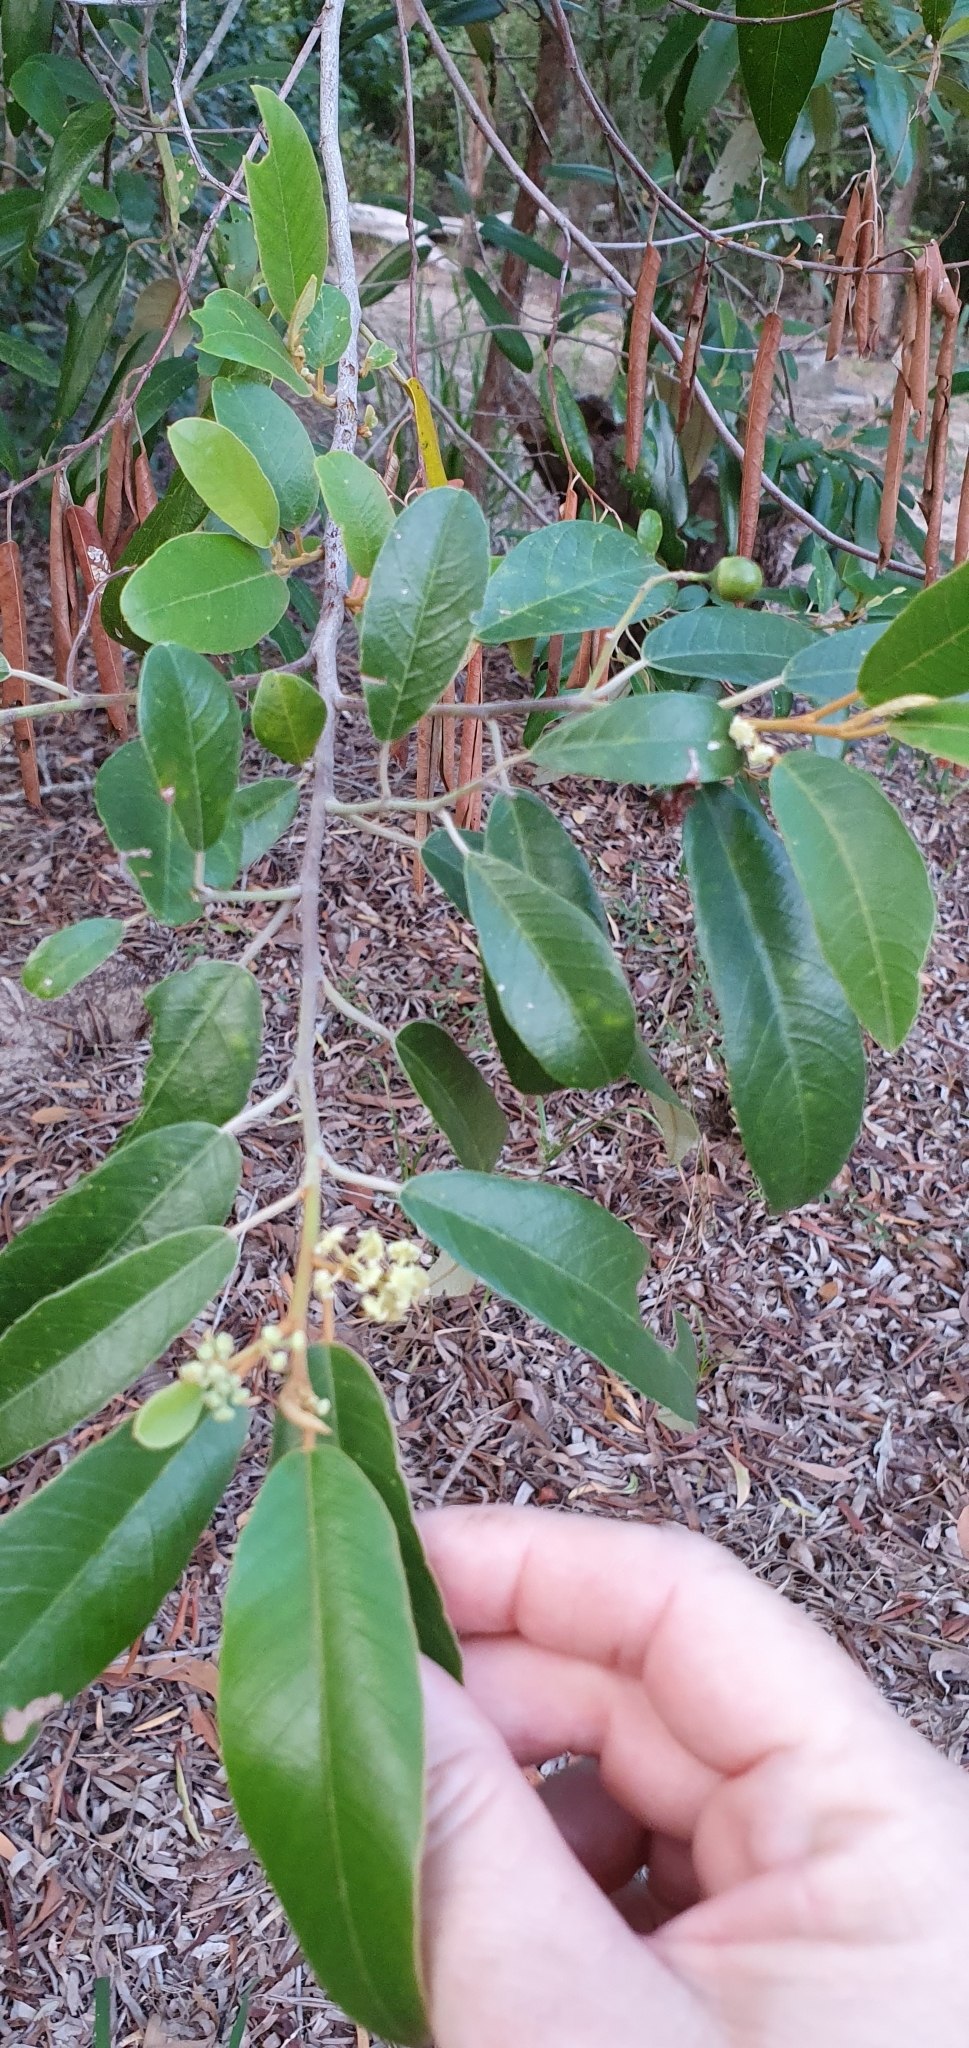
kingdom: Plantae
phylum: Tracheophyta
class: Magnoliopsida
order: Rosales
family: Rhamnaceae
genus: Alphitonia
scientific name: Alphitonia excelsa
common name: Red ash
